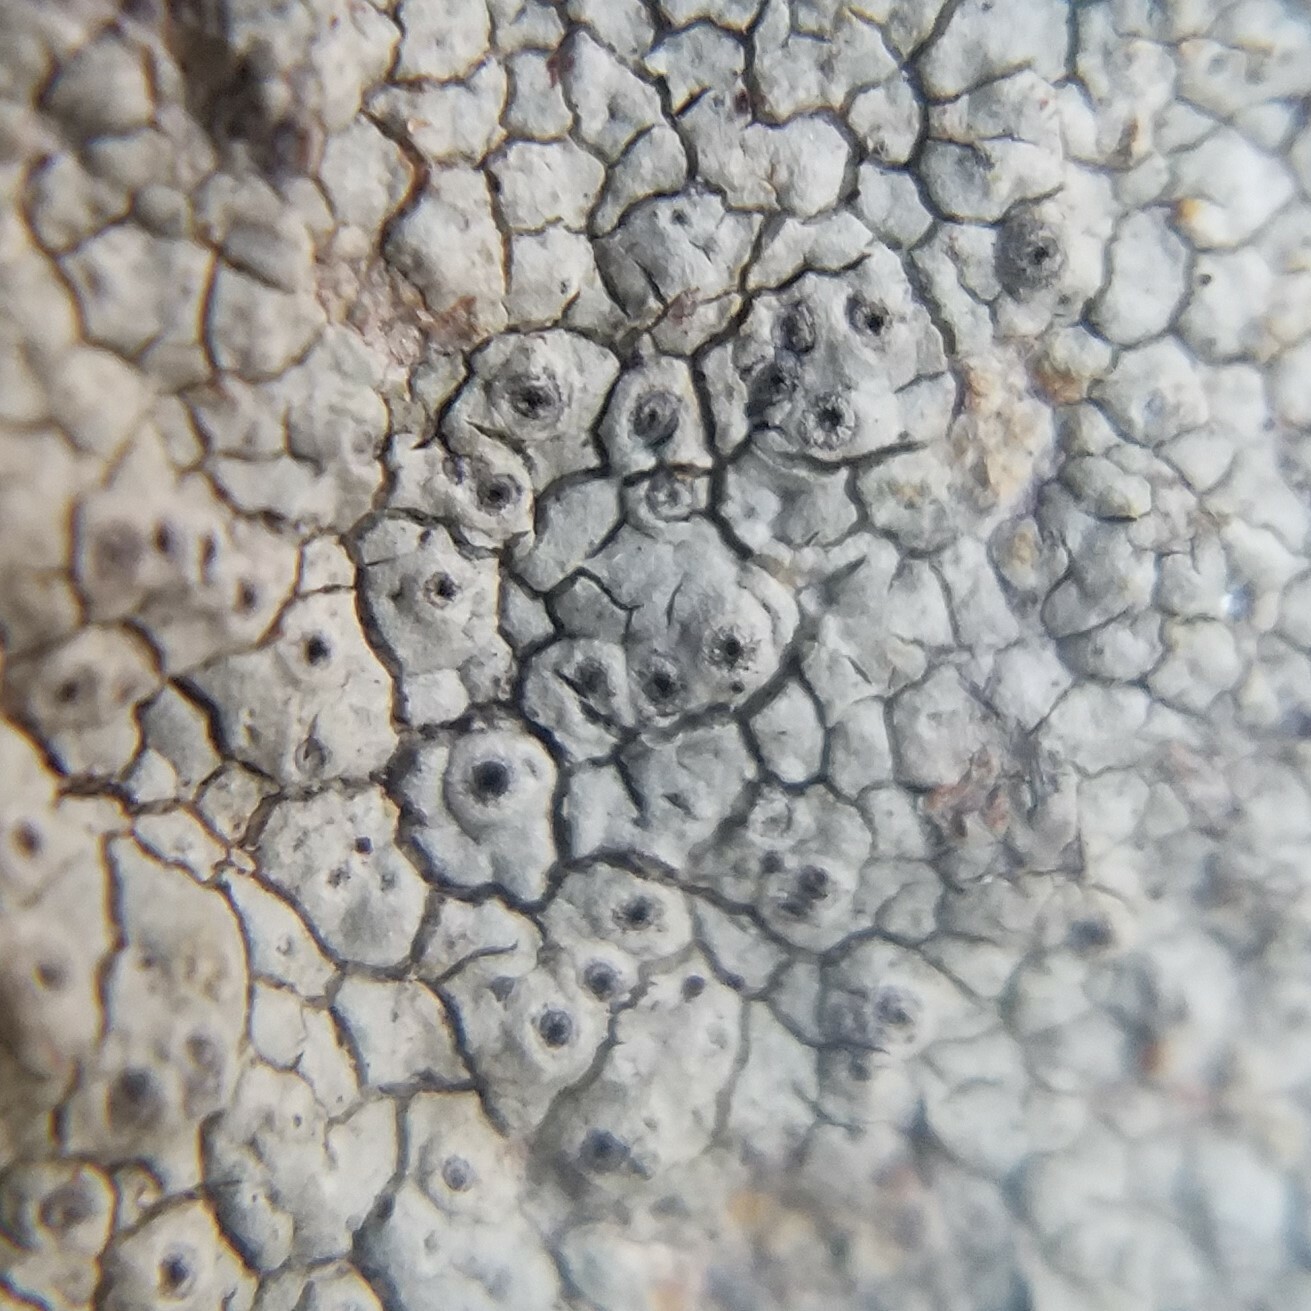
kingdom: Fungi
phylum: Ascomycota
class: Lecanoromycetes
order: Ostropales
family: Graphidaceae
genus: Diploschistes
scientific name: Diploschistes actinostomus
